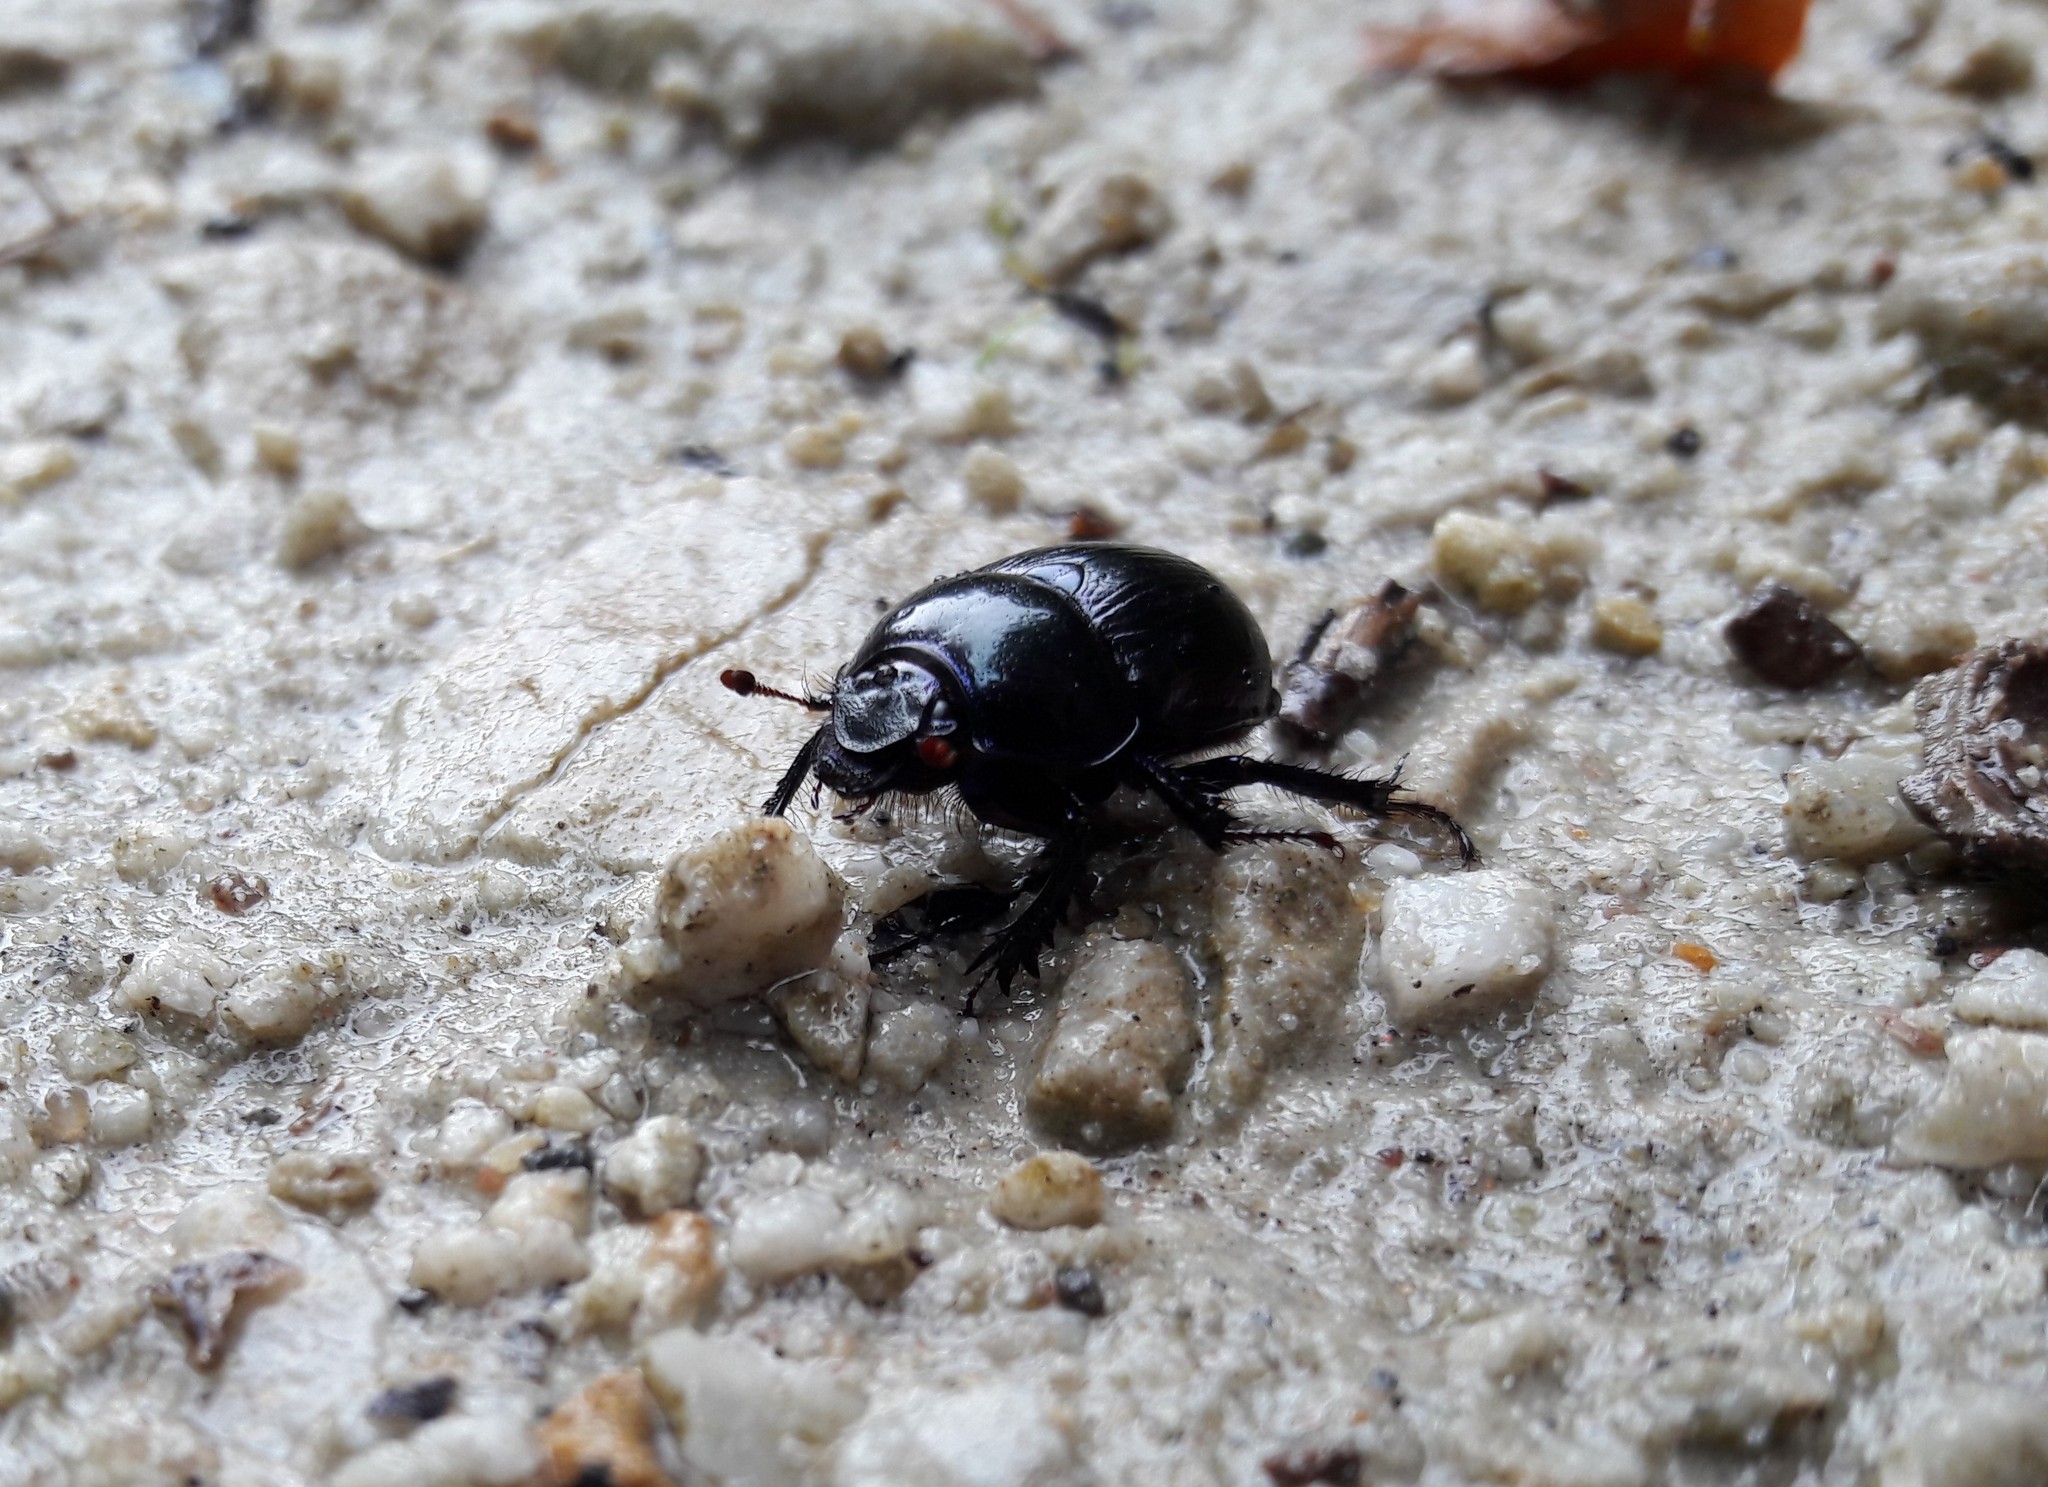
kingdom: Animalia
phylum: Arthropoda
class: Insecta
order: Coleoptera
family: Geotrupidae
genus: Anoplotrupes
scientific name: Anoplotrupes stercorosus
